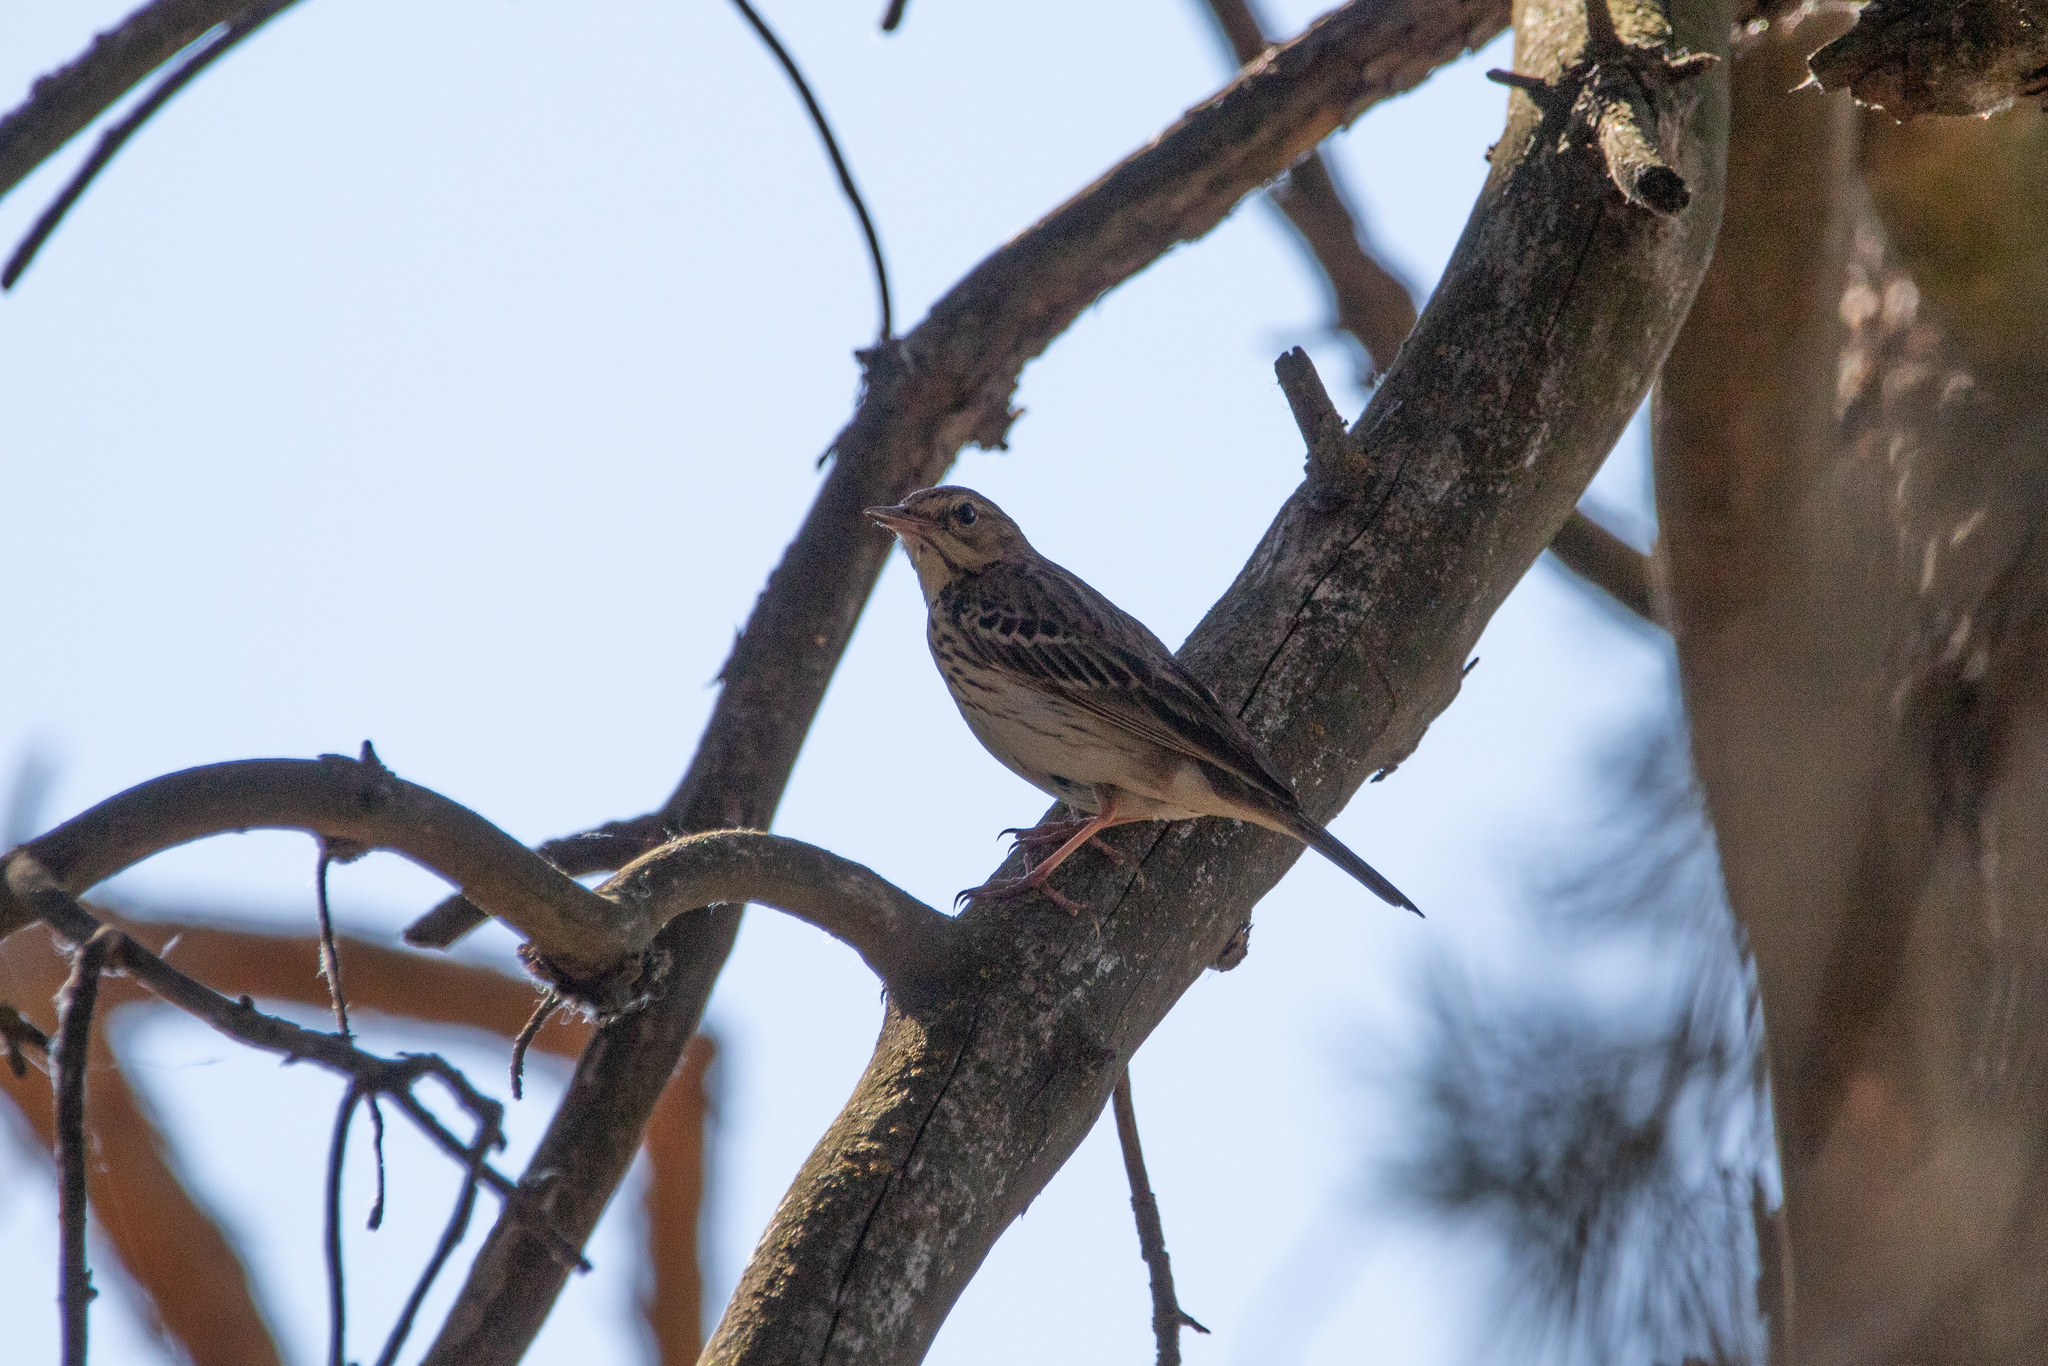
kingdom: Animalia
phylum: Chordata
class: Aves
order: Passeriformes
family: Motacillidae
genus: Anthus
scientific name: Anthus trivialis
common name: Tree pipit
